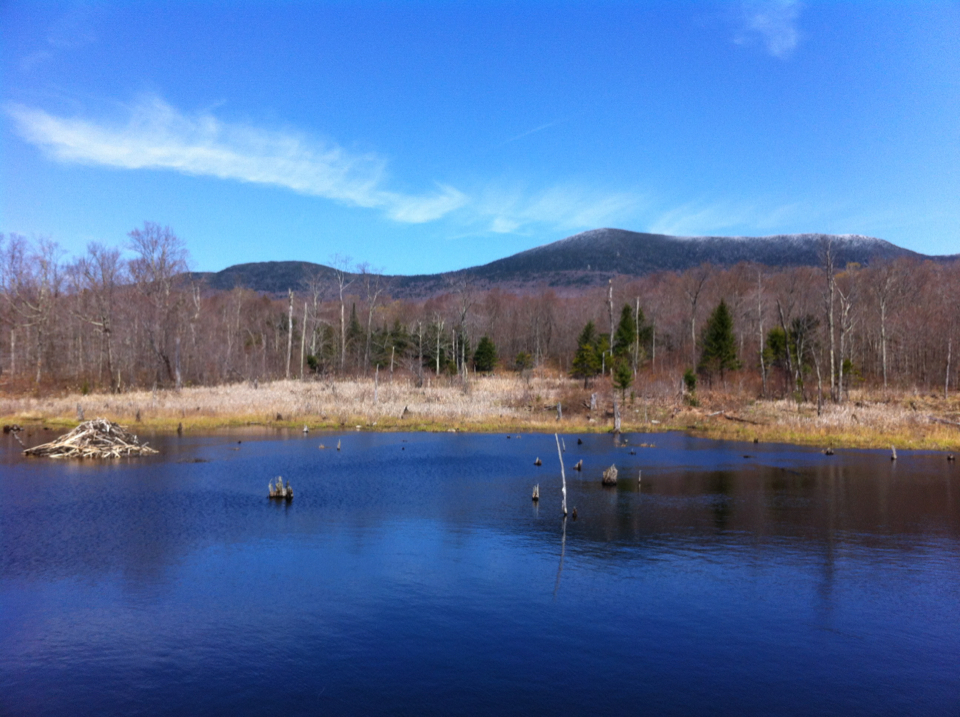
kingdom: Animalia
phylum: Chordata
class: Mammalia
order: Rodentia
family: Castoridae
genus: Castor
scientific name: Castor canadensis
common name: American beaver
